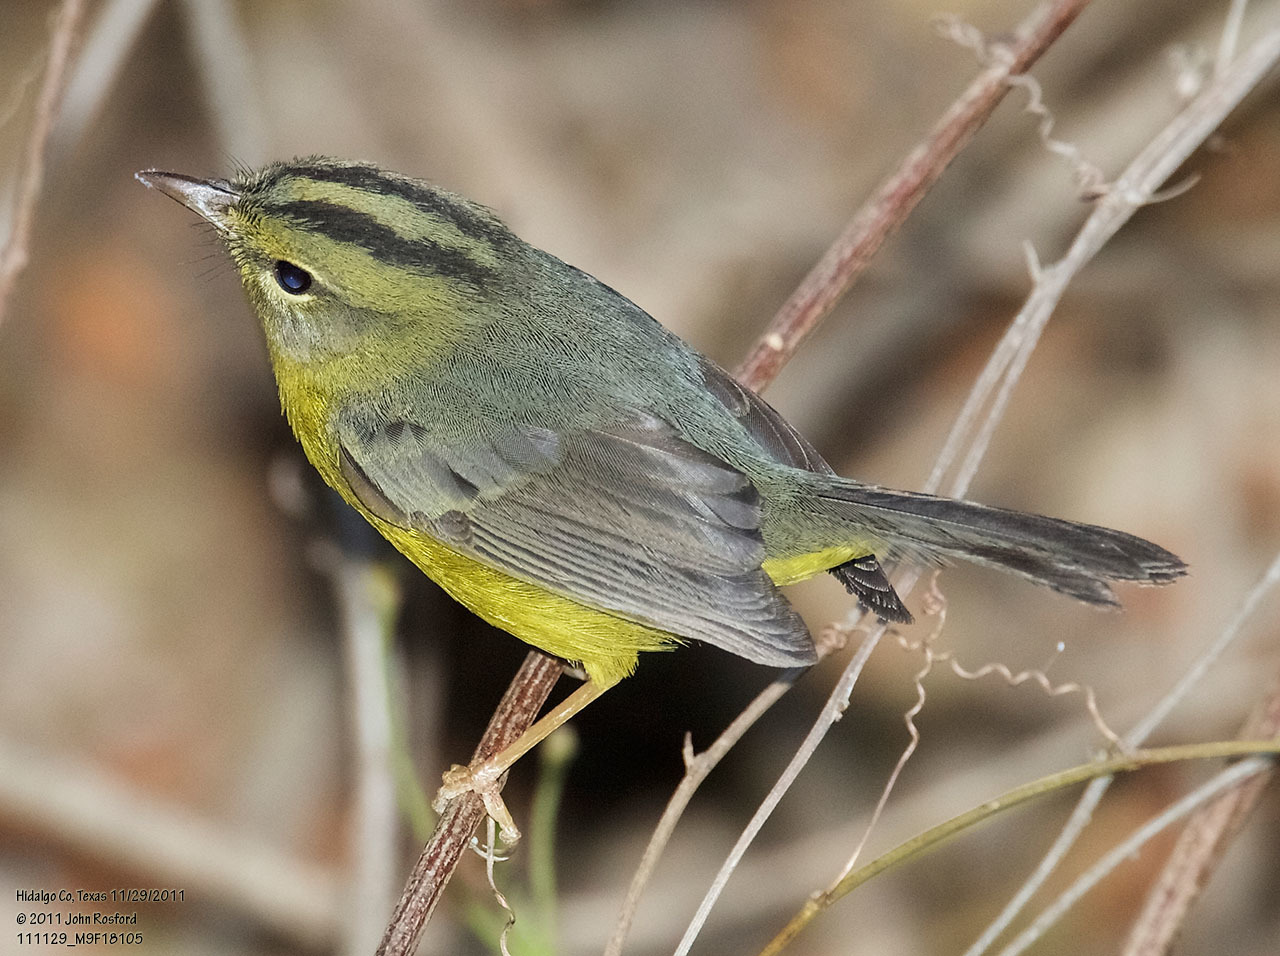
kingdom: Animalia
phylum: Chordata
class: Aves
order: Passeriformes
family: Parulidae
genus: Basileuterus
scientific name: Basileuterus culicivorus
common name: Golden-crowned warbler
